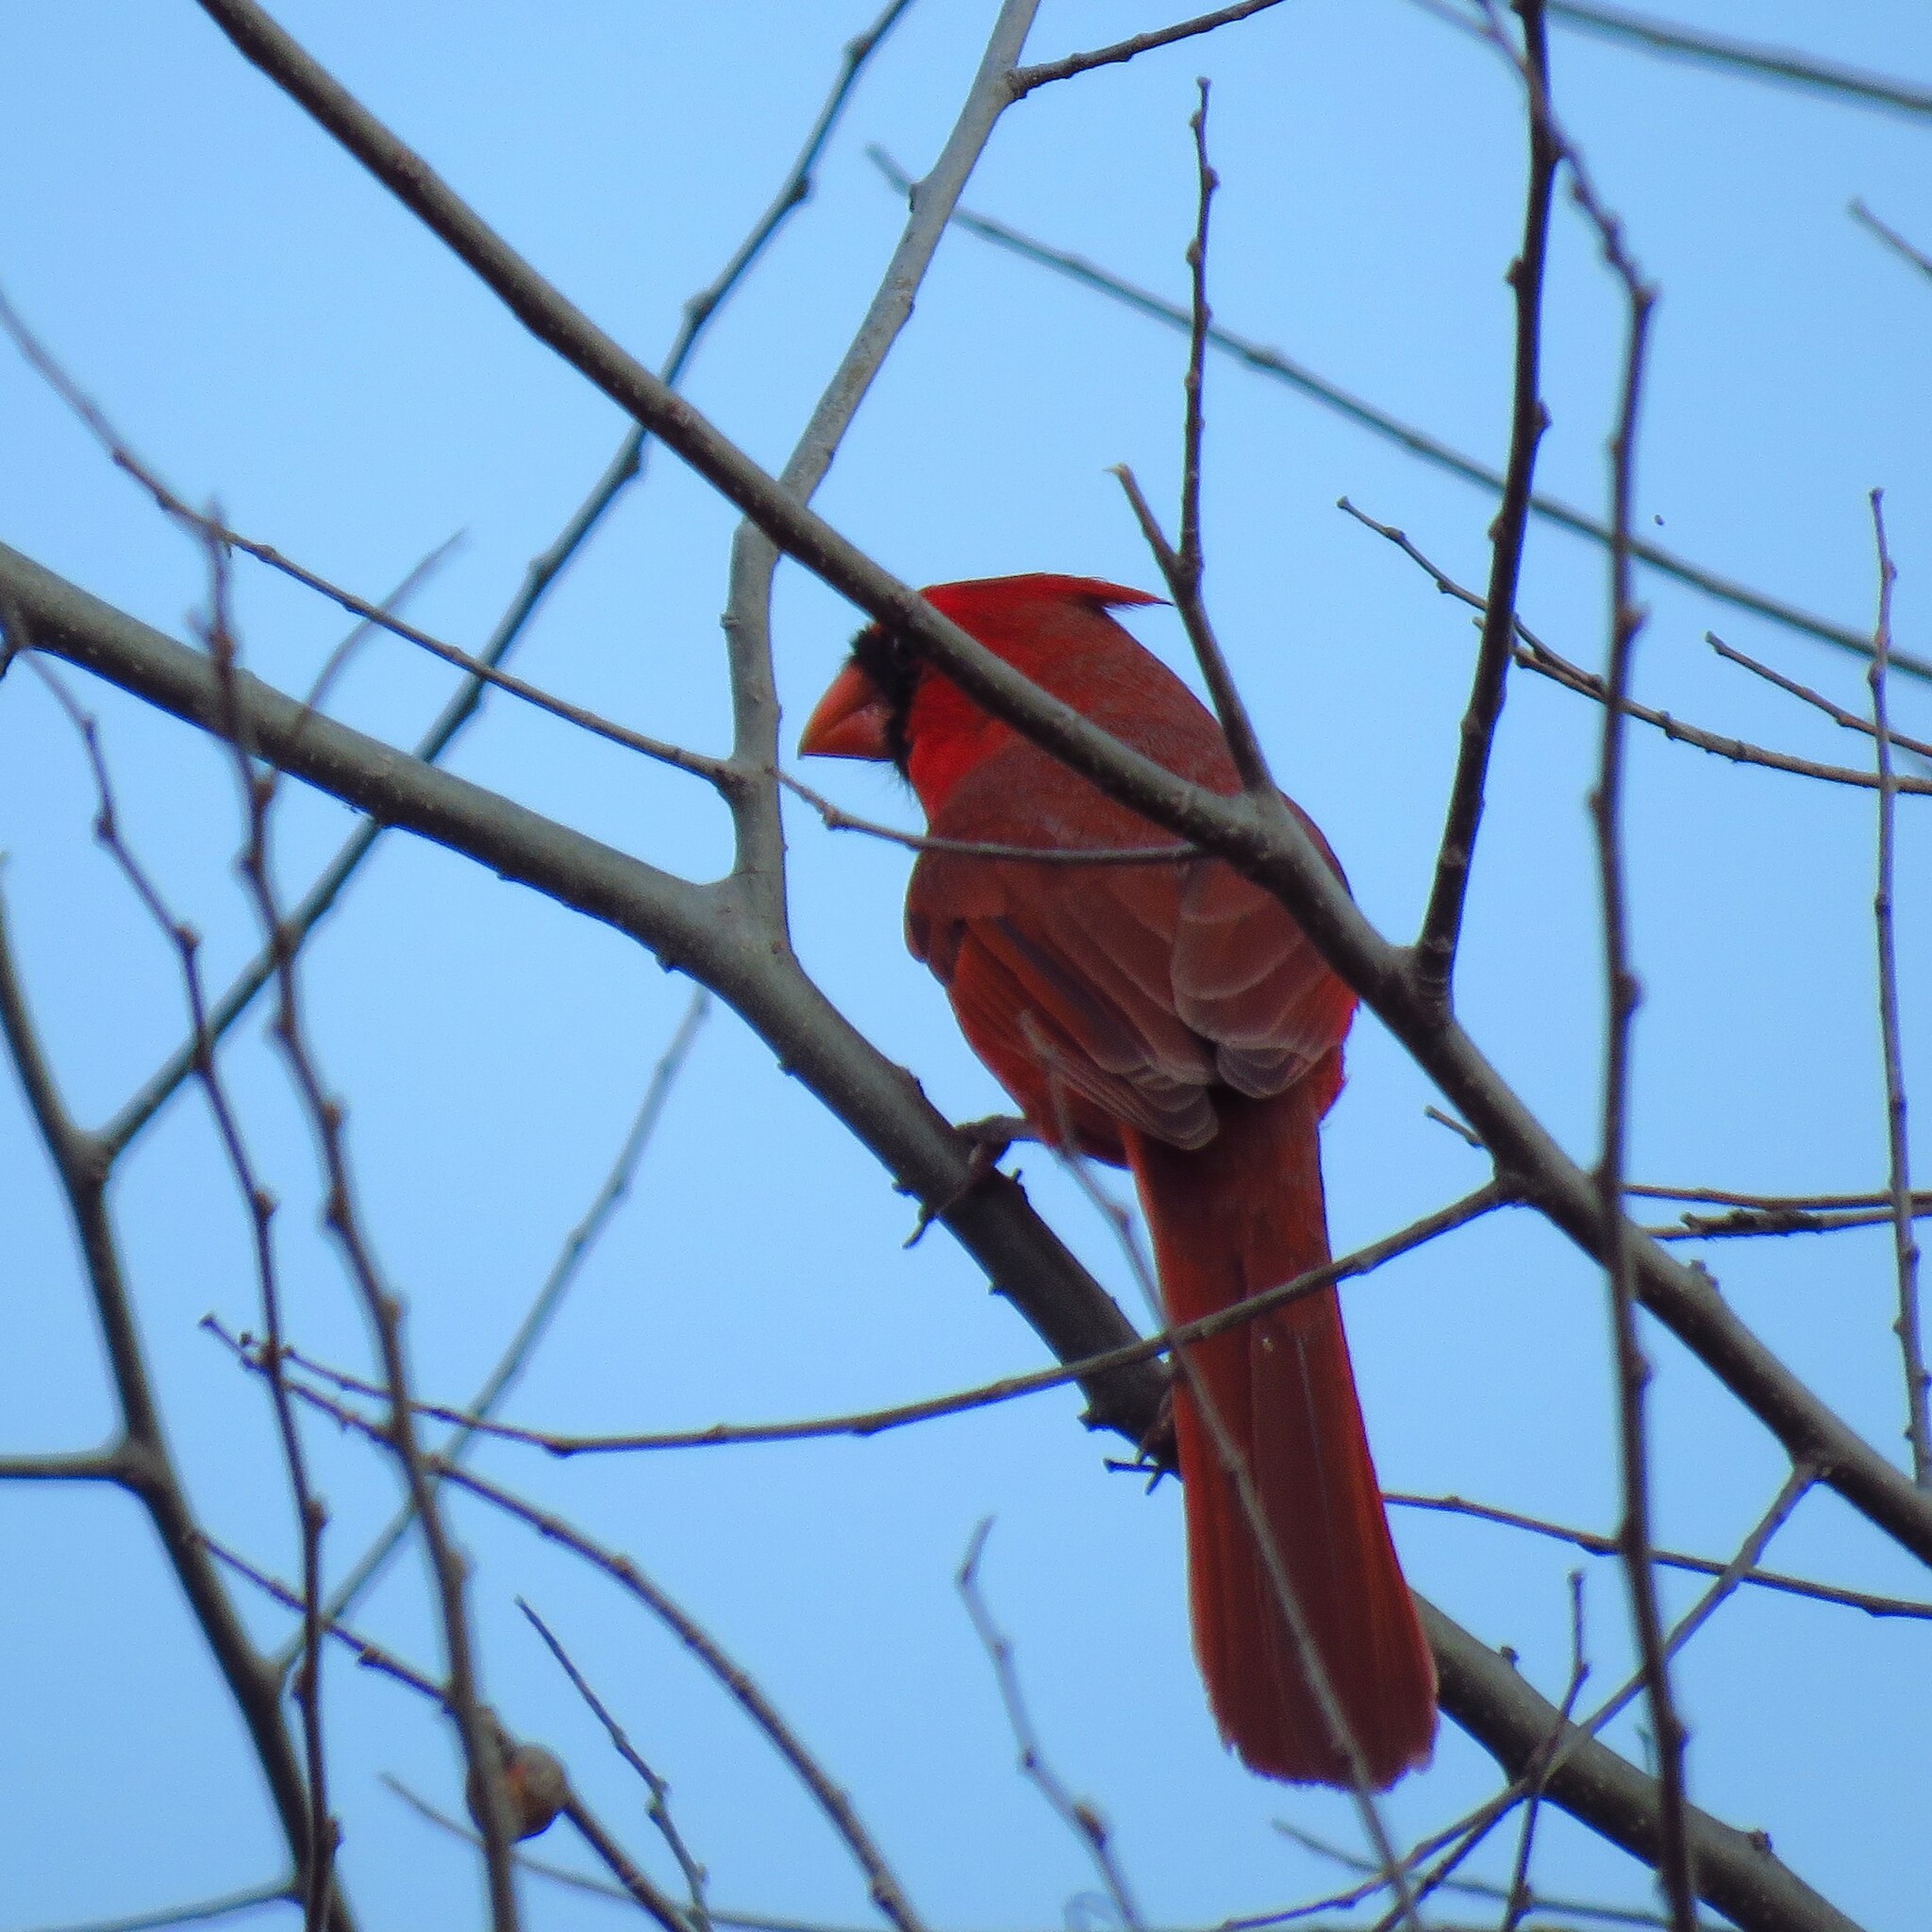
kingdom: Animalia
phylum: Chordata
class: Aves
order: Passeriformes
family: Cardinalidae
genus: Cardinalis
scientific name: Cardinalis cardinalis
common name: Northern cardinal
